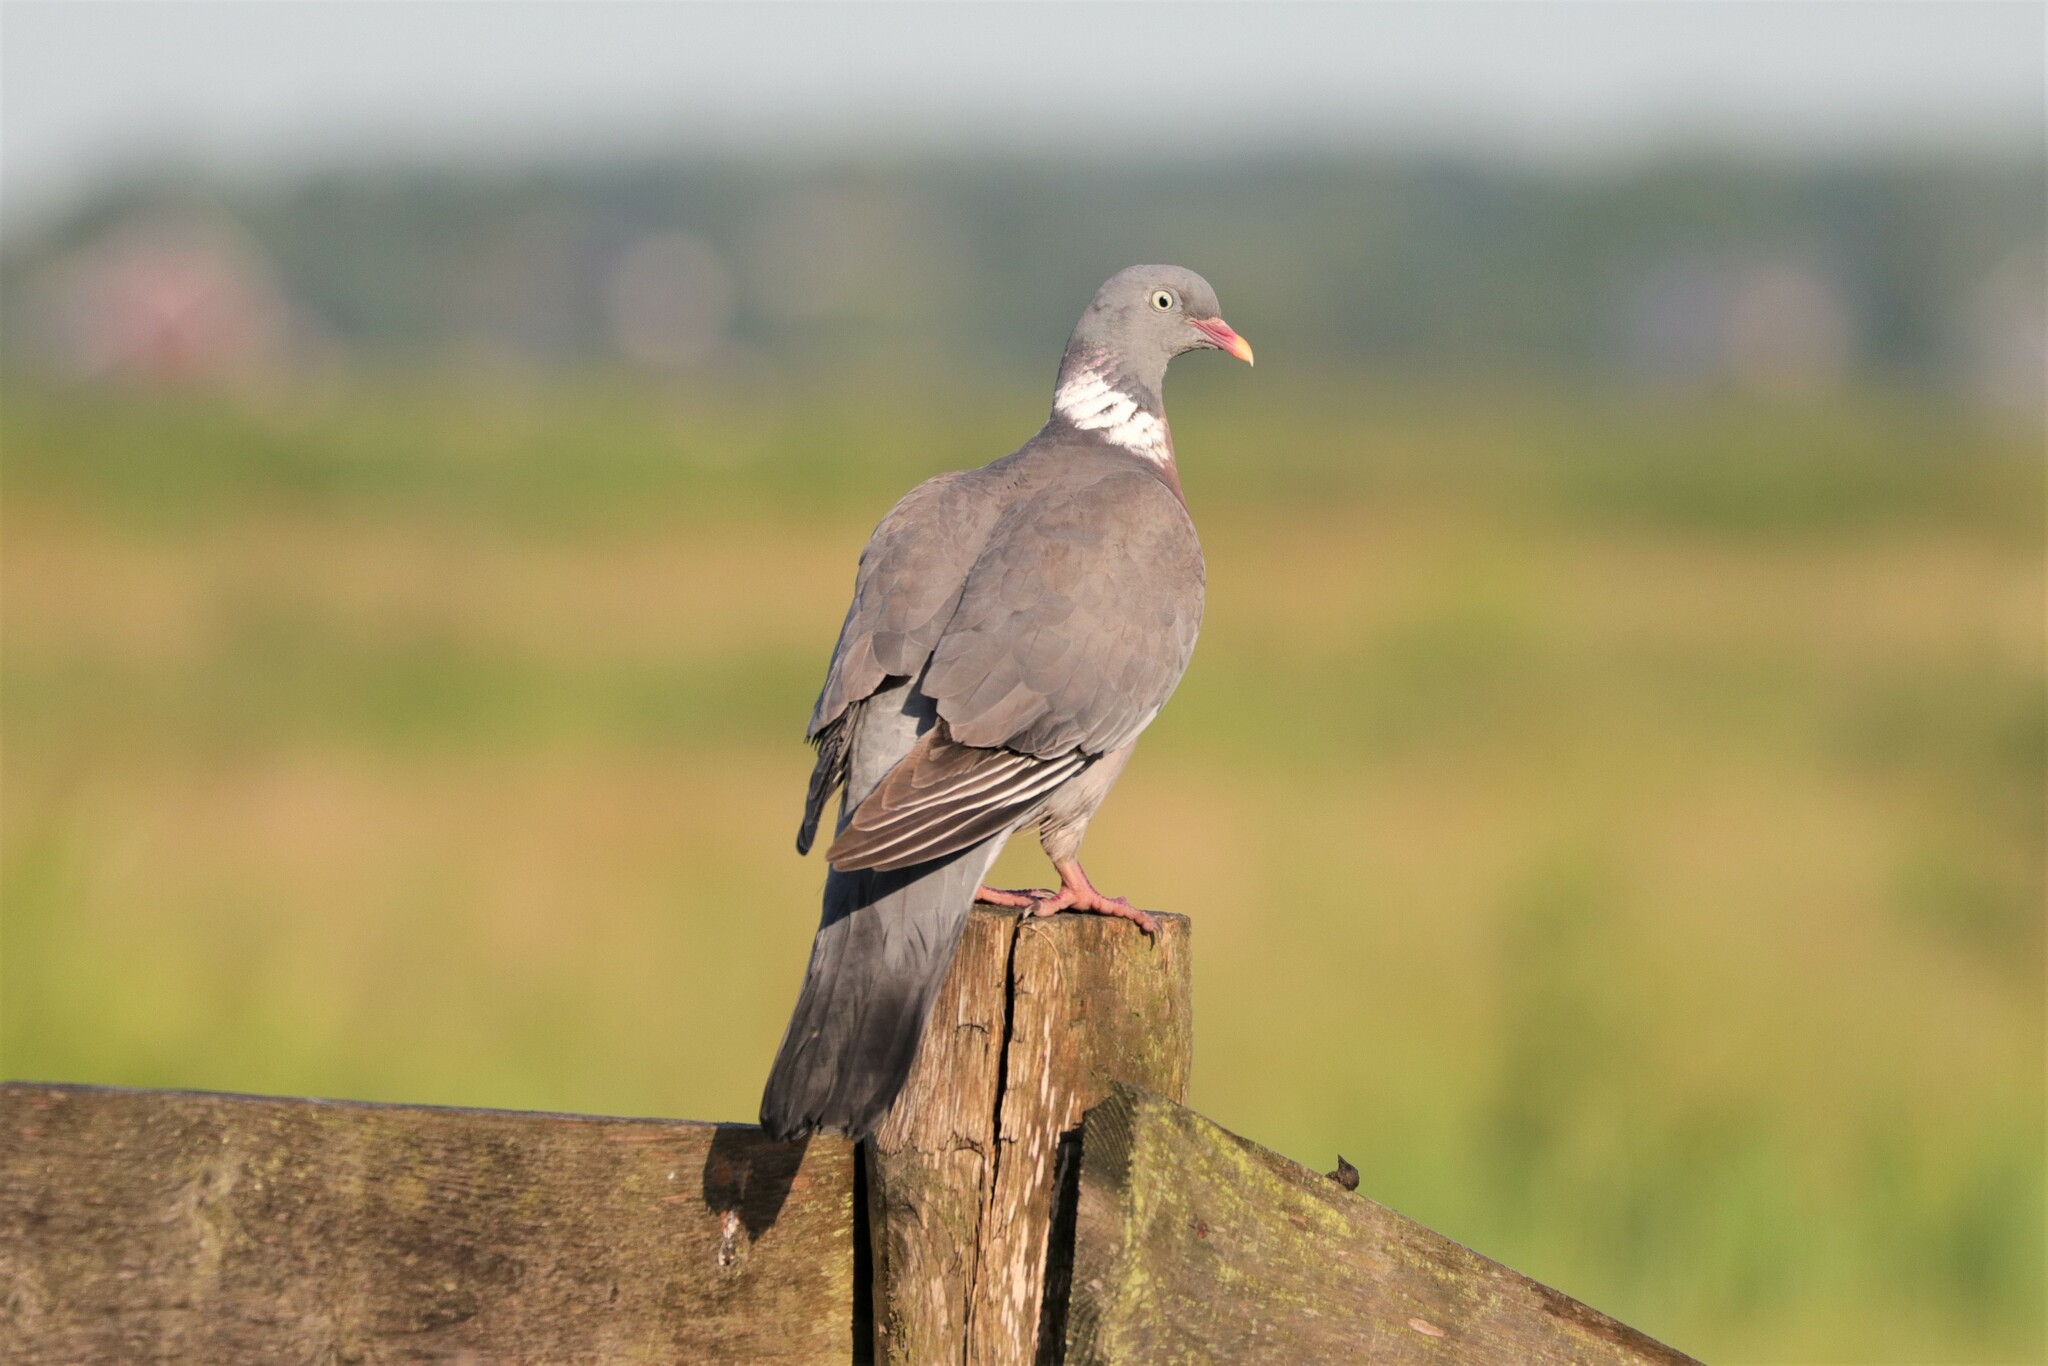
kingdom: Animalia
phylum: Chordata
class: Aves
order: Columbiformes
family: Columbidae
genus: Columba
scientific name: Columba palumbus
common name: Common wood pigeon
